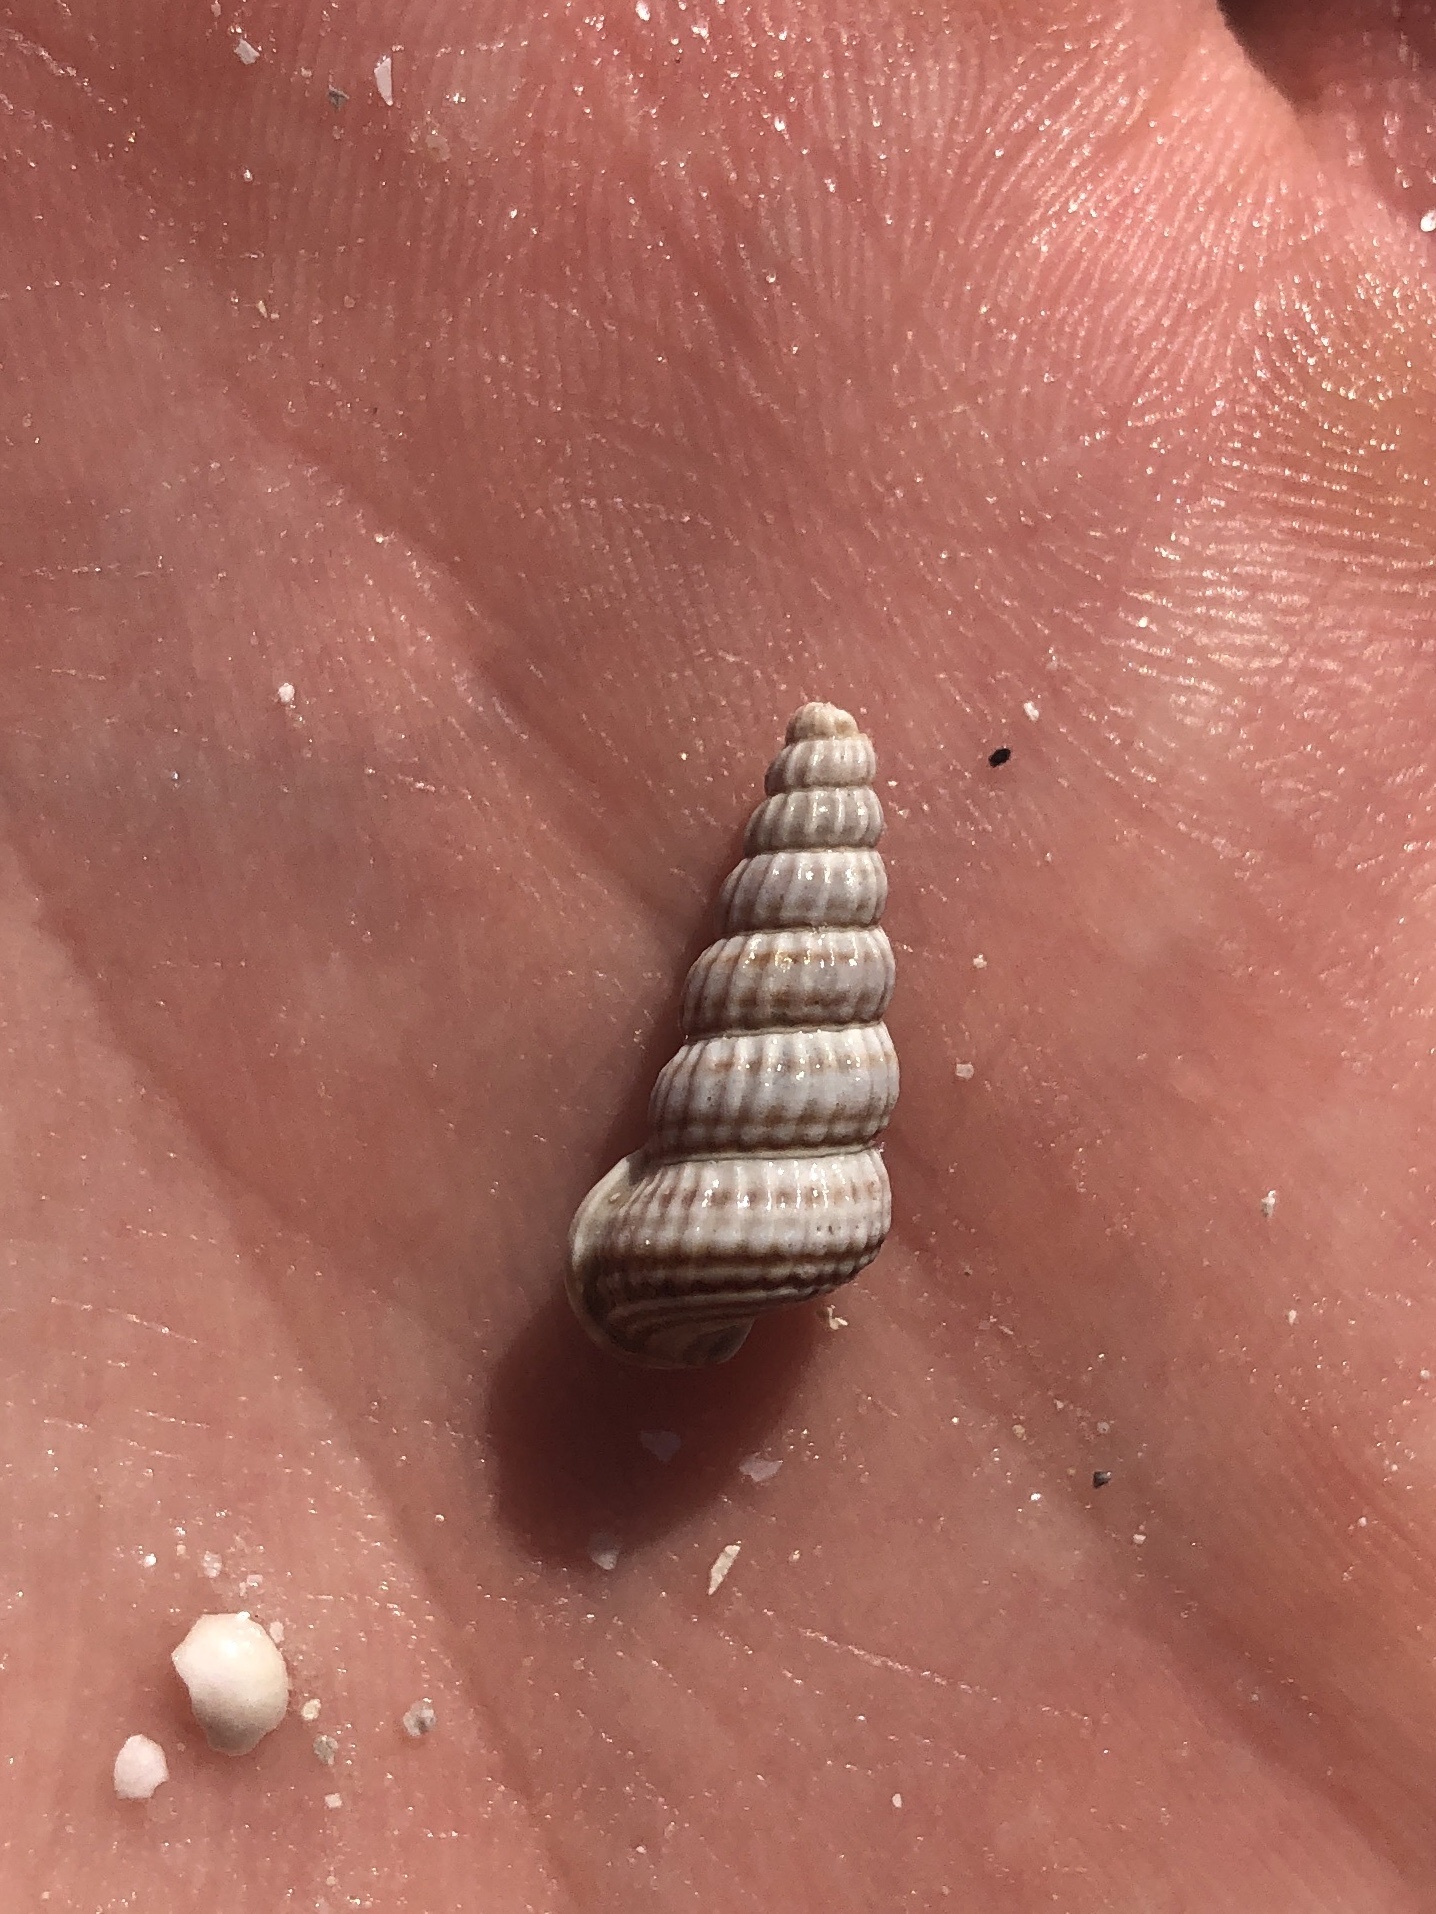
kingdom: Animalia
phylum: Mollusca
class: Gastropoda
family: Potamididae
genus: Cerithideopsis
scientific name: Cerithideopsis scalariformis
